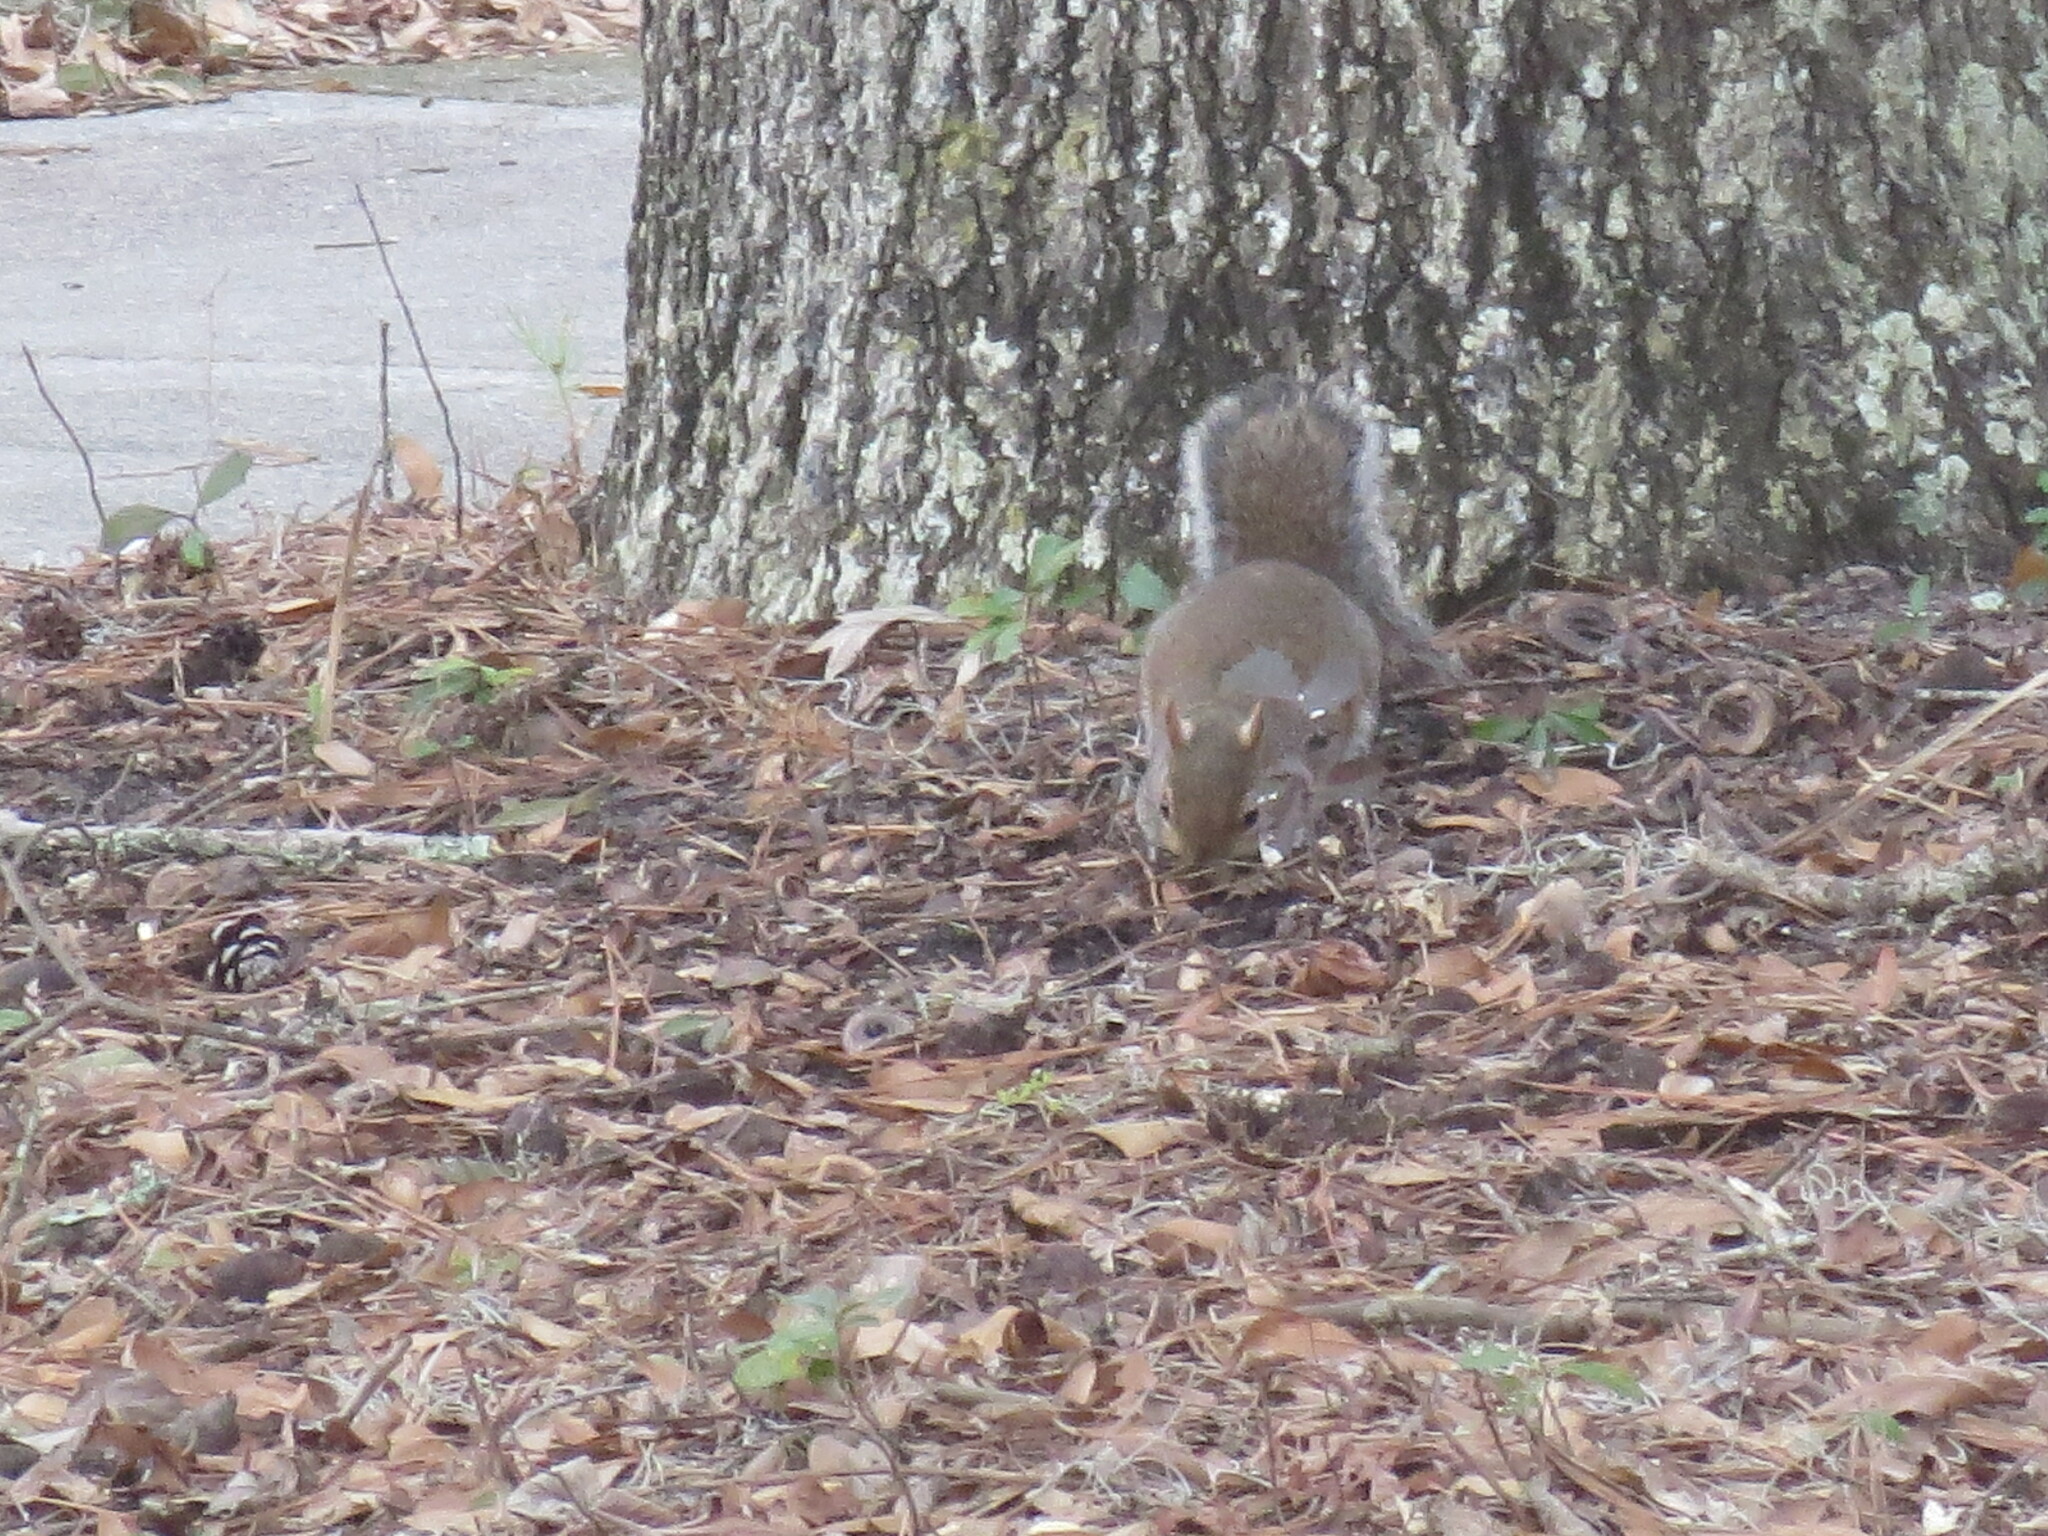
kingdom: Animalia
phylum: Chordata
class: Mammalia
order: Rodentia
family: Sciuridae
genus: Sciurus
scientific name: Sciurus carolinensis
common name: Eastern gray squirrel
